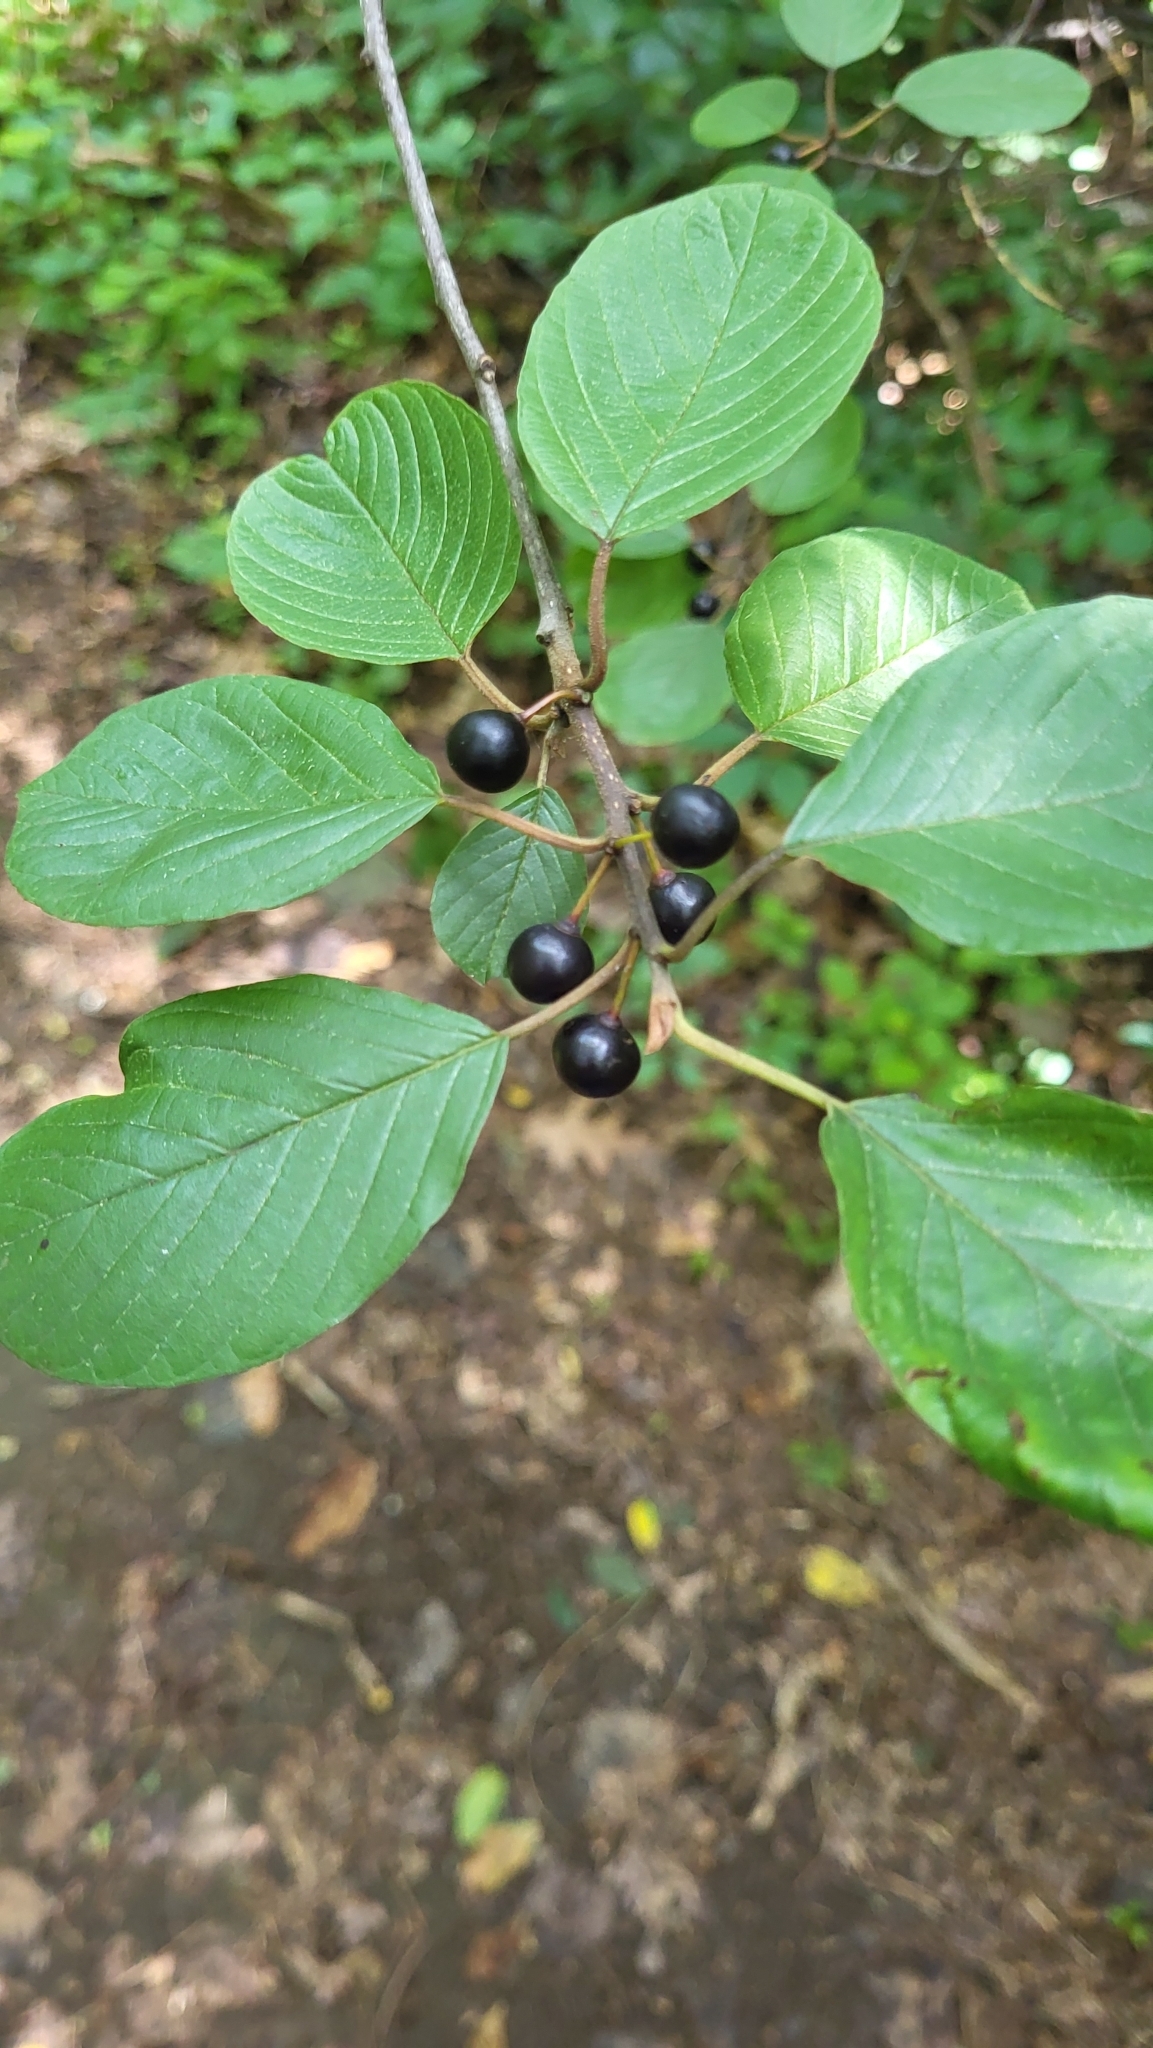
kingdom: Plantae
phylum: Tracheophyta
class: Magnoliopsida
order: Rosales
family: Rhamnaceae
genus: Frangula
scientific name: Frangula alnus
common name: Alder buckthorn
